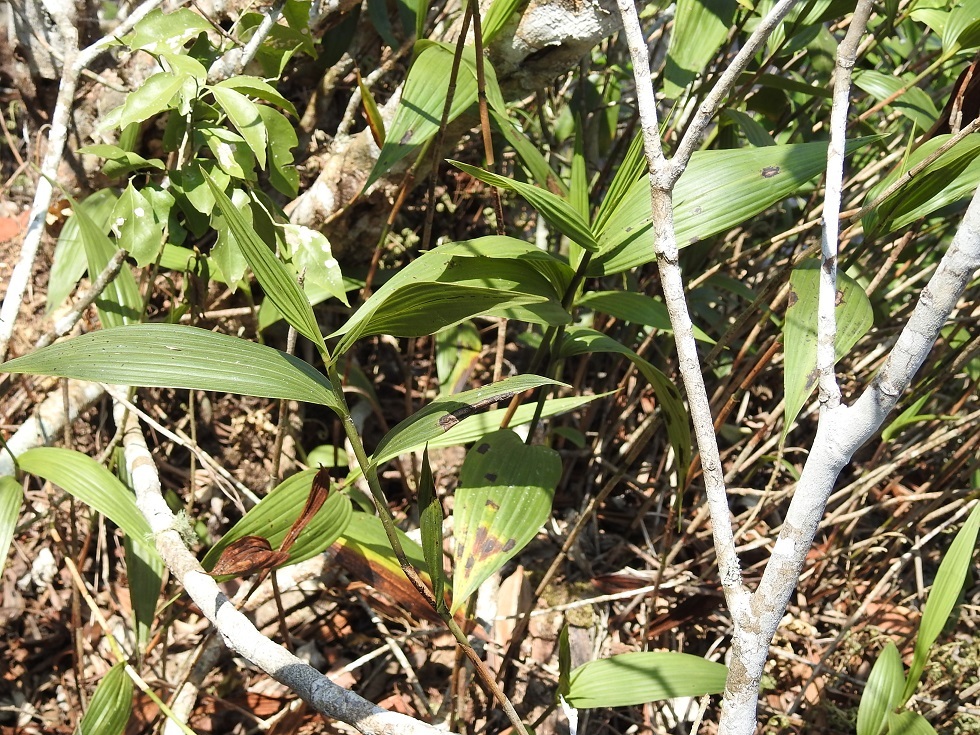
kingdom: Plantae
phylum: Tracheophyta
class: Liliopsida
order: Asparagales
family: Orchidaceae
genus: Sobralia
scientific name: Sobralia macrantha
